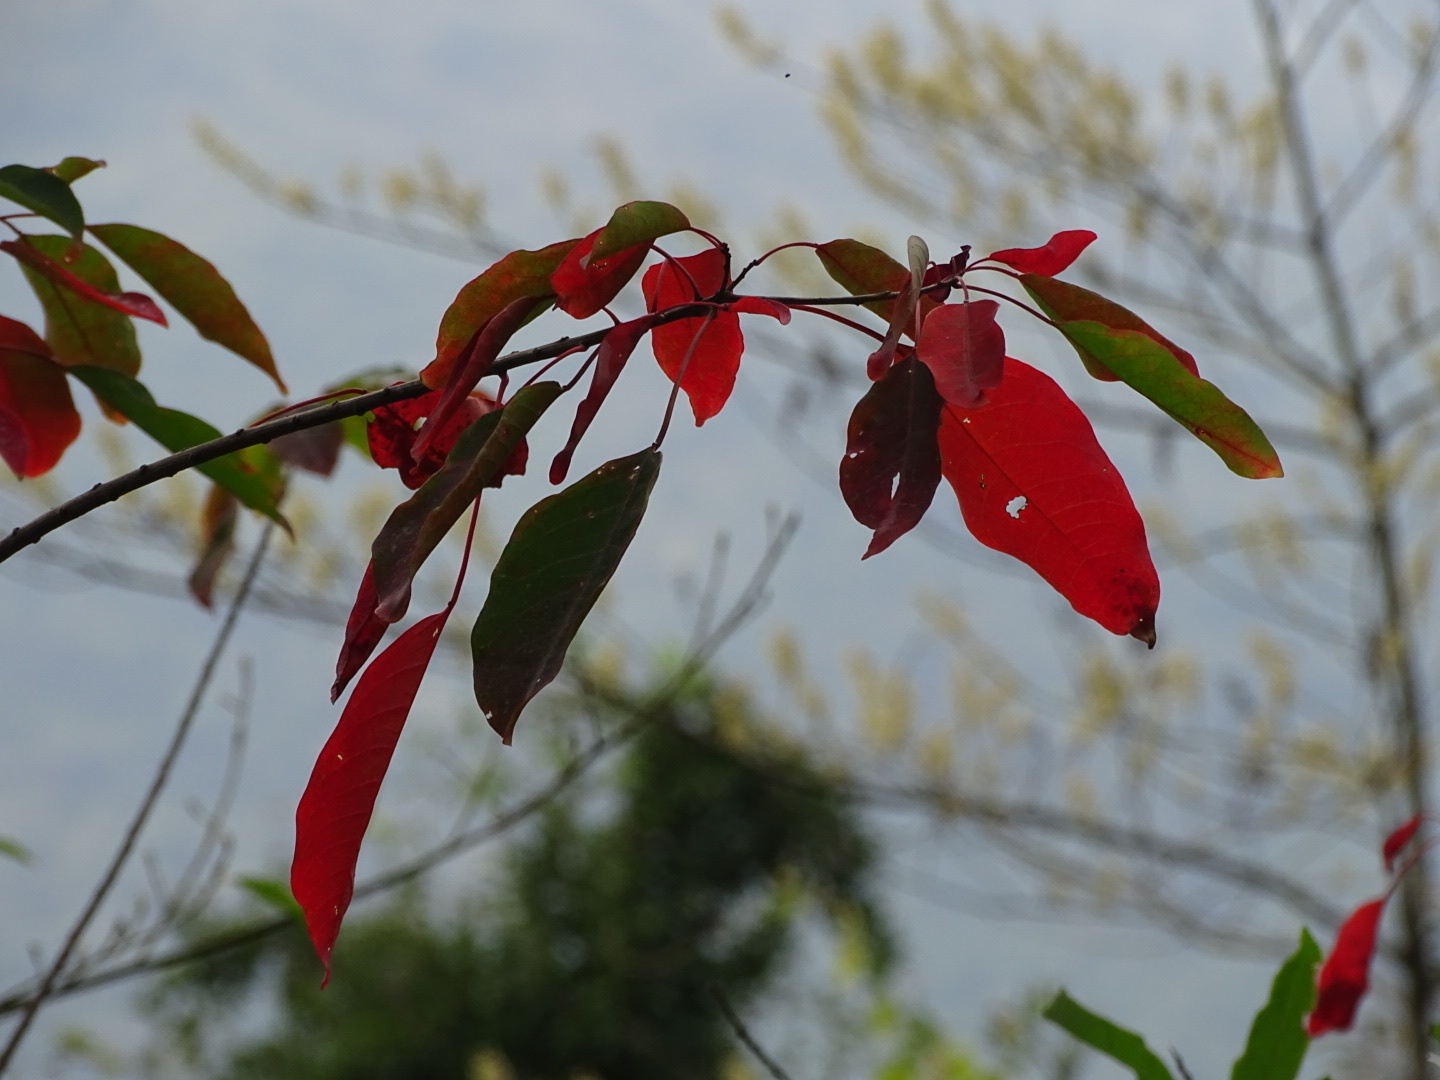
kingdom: Plantae
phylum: Tracheophyta
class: Magnoliopsida
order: Malpighiales
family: Euphorbiaceae
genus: Triadica
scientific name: Triadica cochinchinensis
